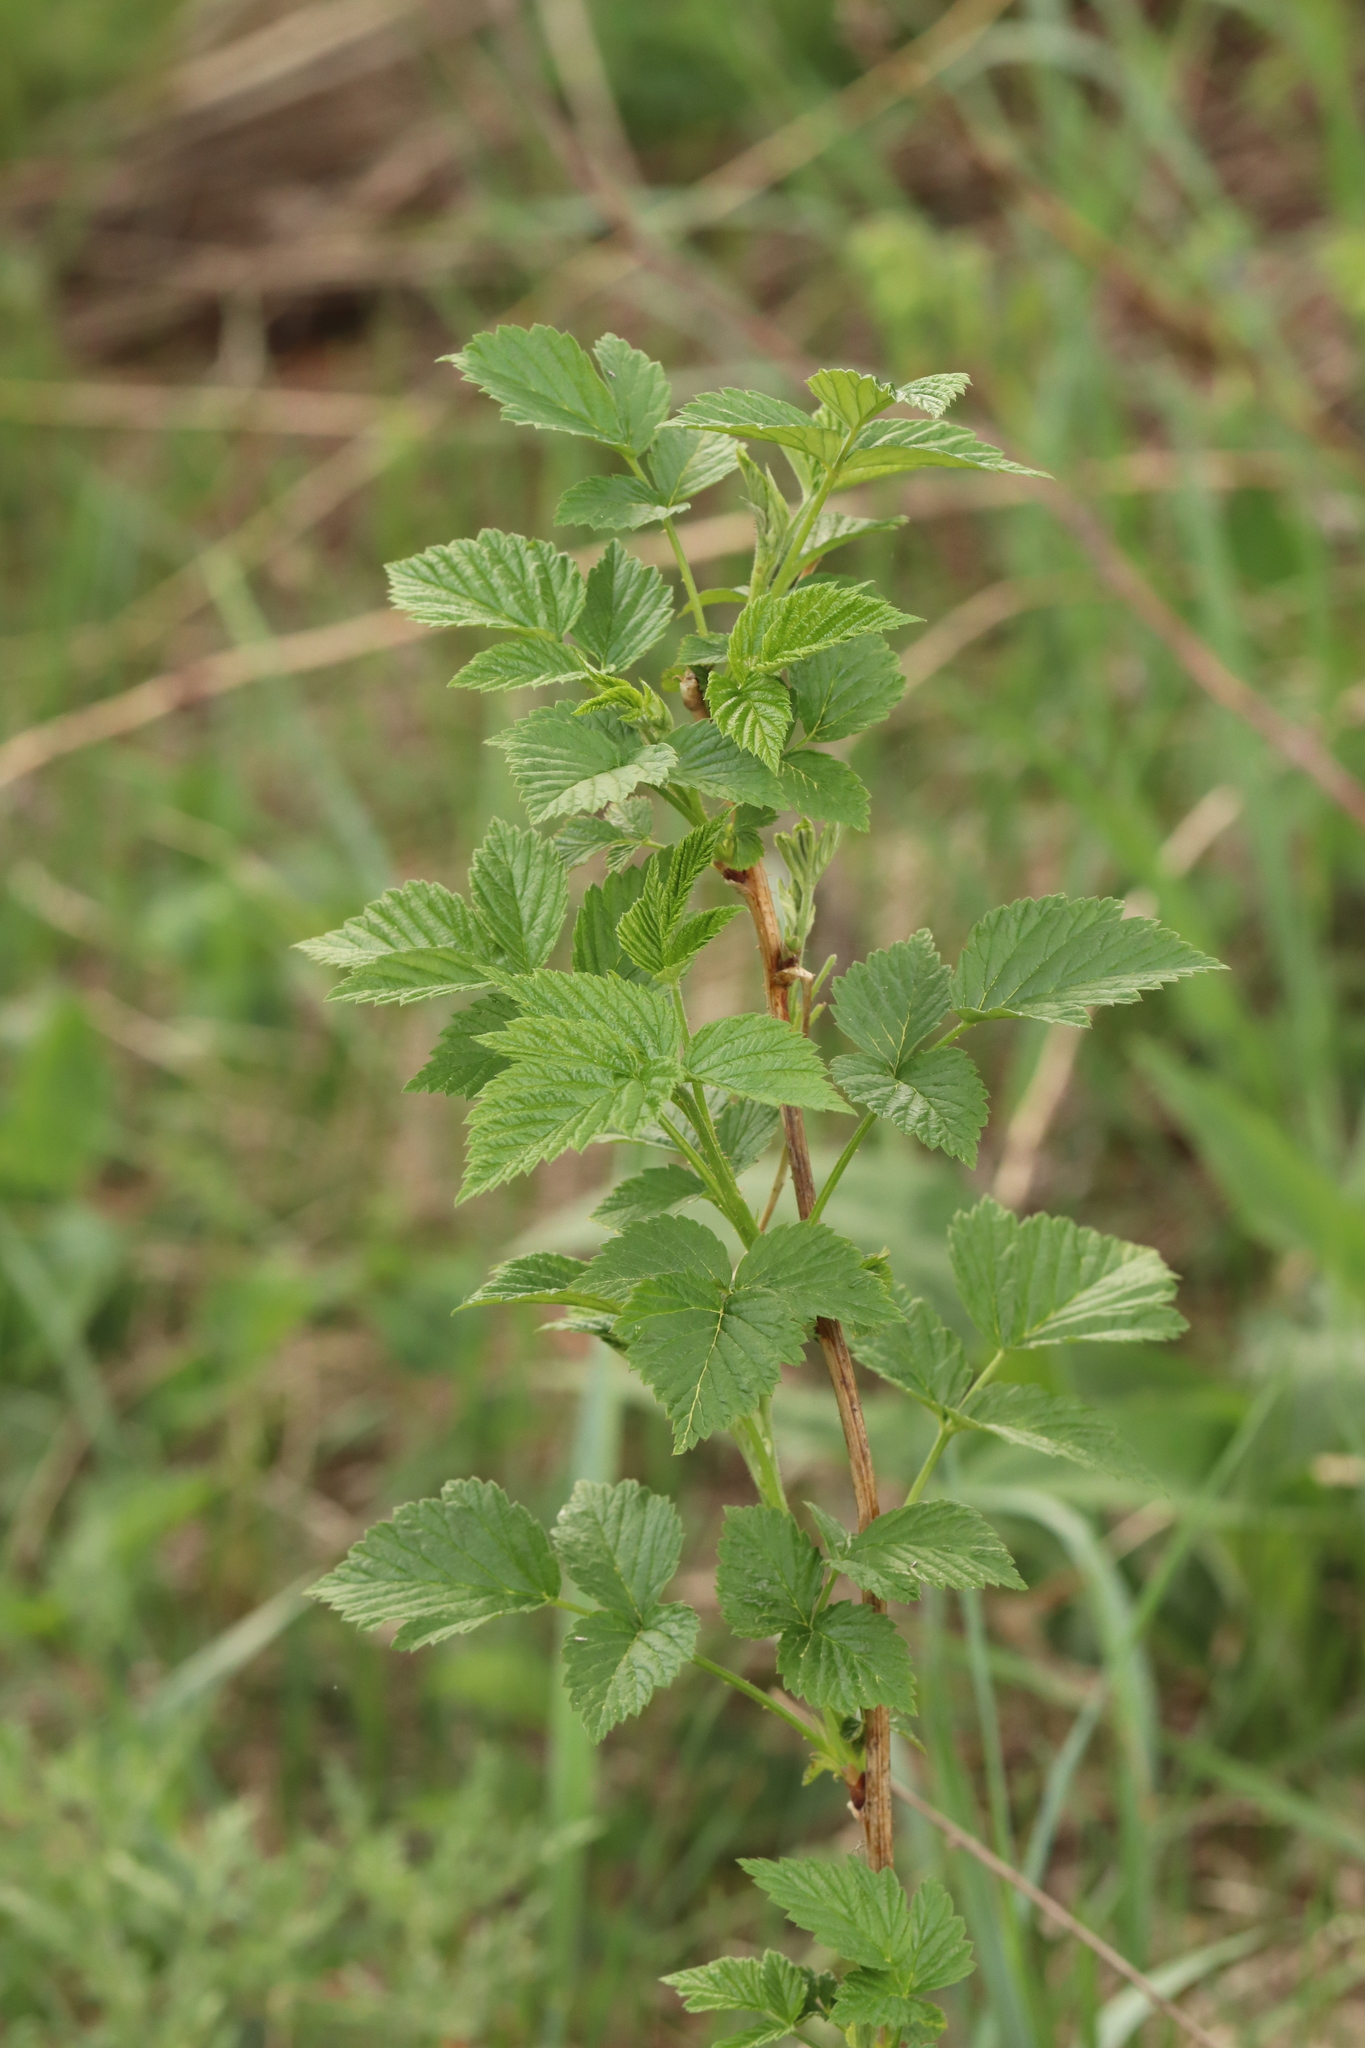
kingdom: Plantae
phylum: Tracheophyta
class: Magnoliopsida
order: Rosales
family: Rosaceae
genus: Rubus
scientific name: Rubus idaeus
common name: Raspberry
